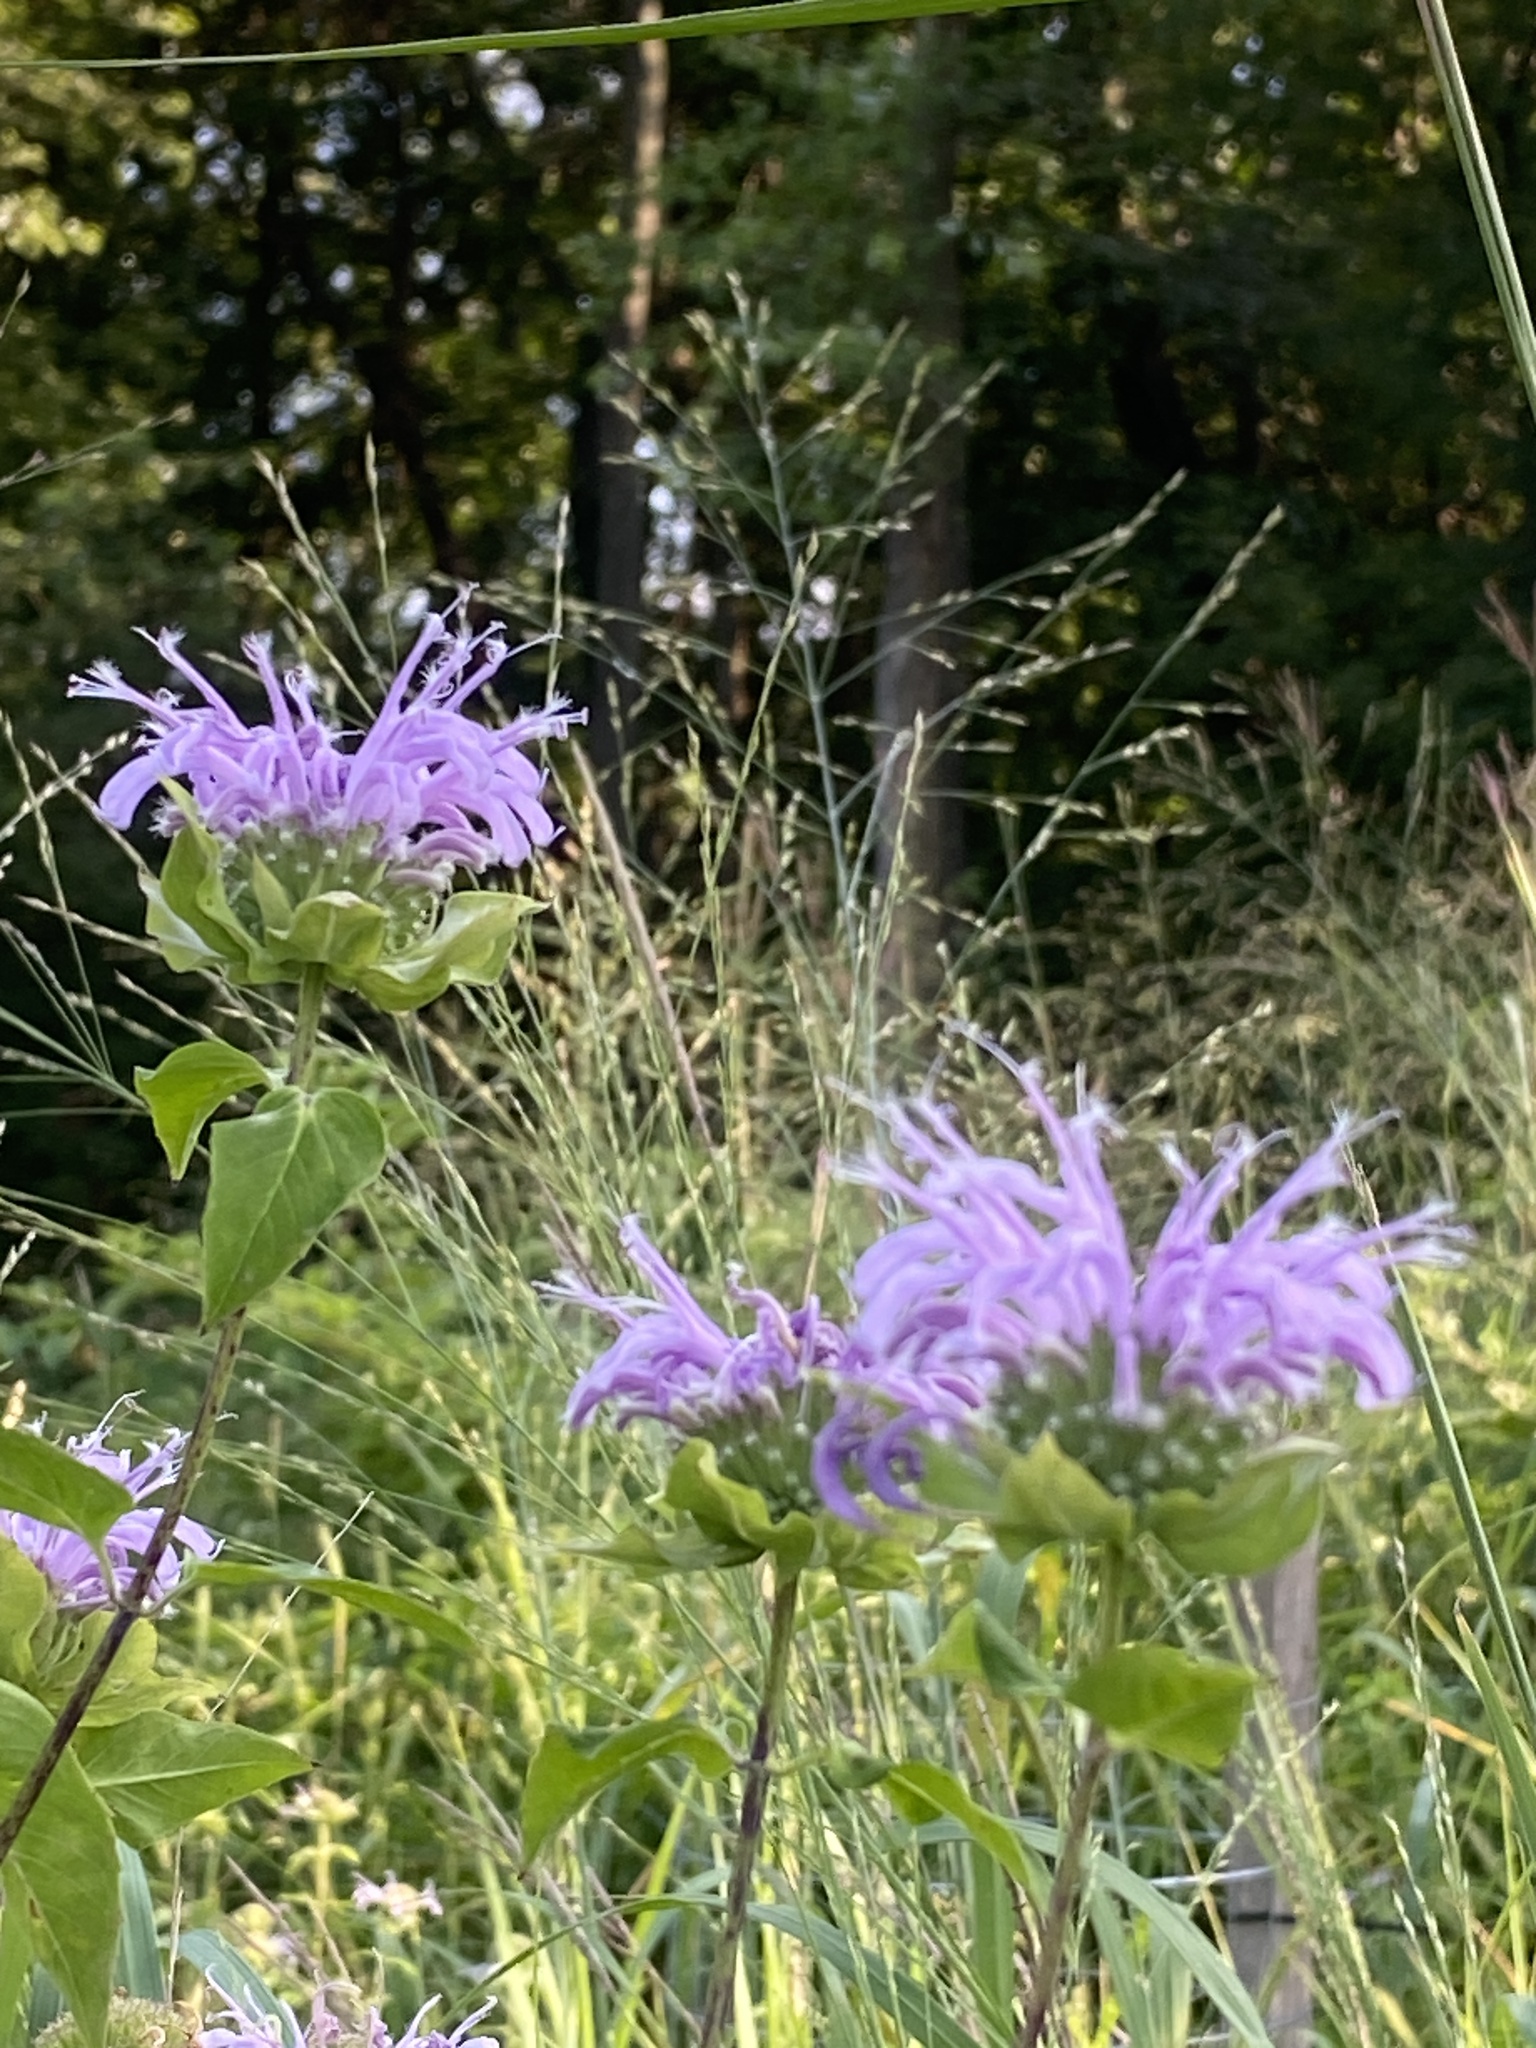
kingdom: Plantae
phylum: Tracheophyta
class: Magnoliopsida
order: Lamiales
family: Lamiaceae
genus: Monarda
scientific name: Monarda fistulosa
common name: Purple beebalm
